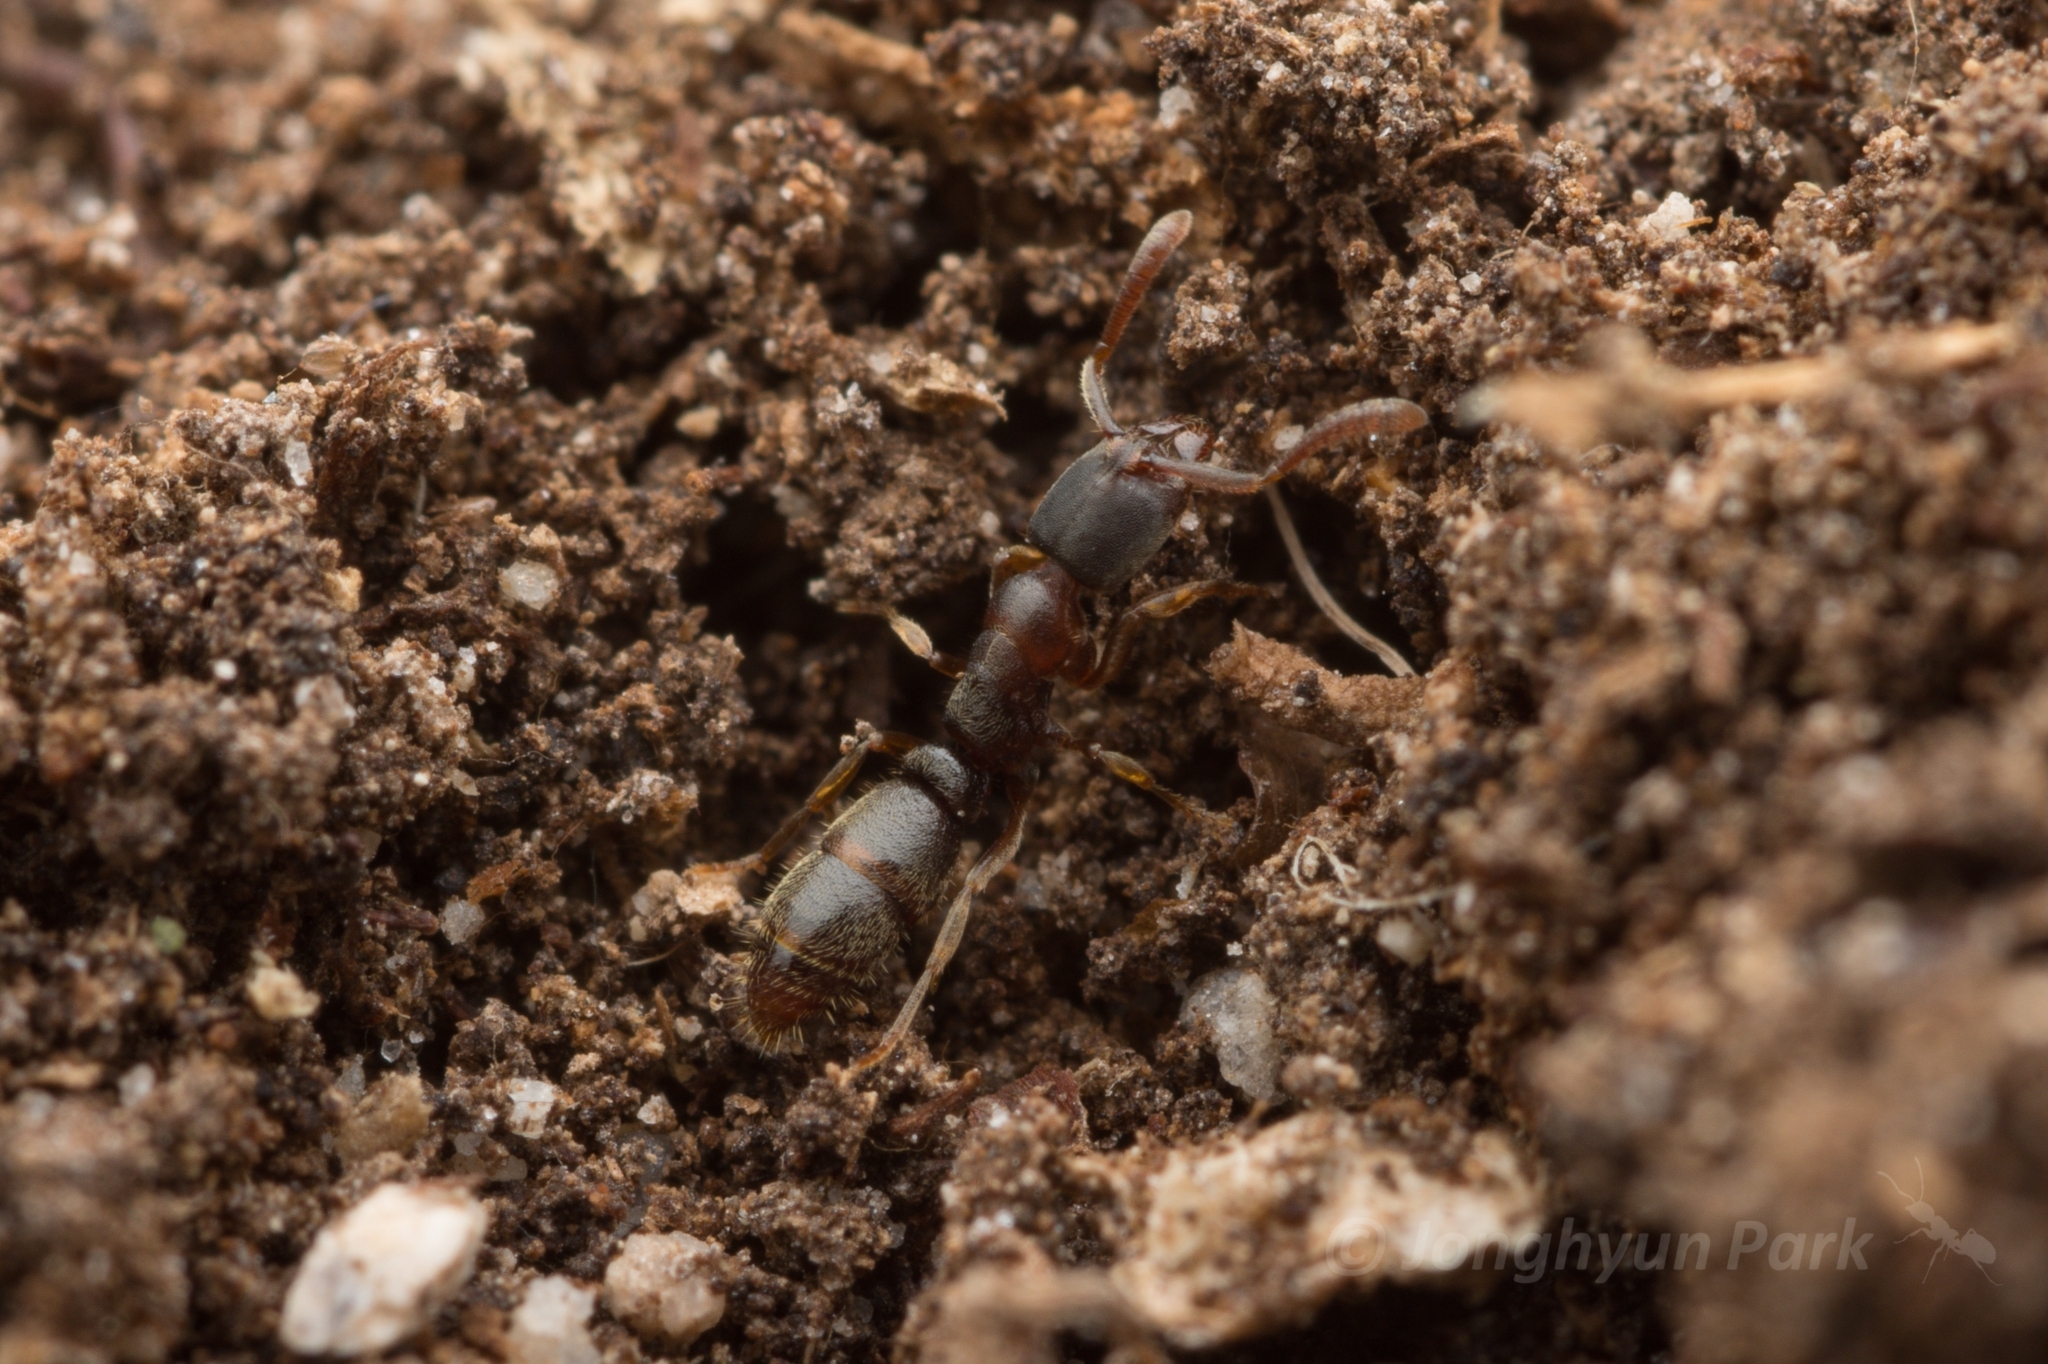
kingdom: Animalia
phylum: Arthropoda
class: Insecta
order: Hymenoptera
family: Formicidae
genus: Ponera
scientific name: Ponera japonica
